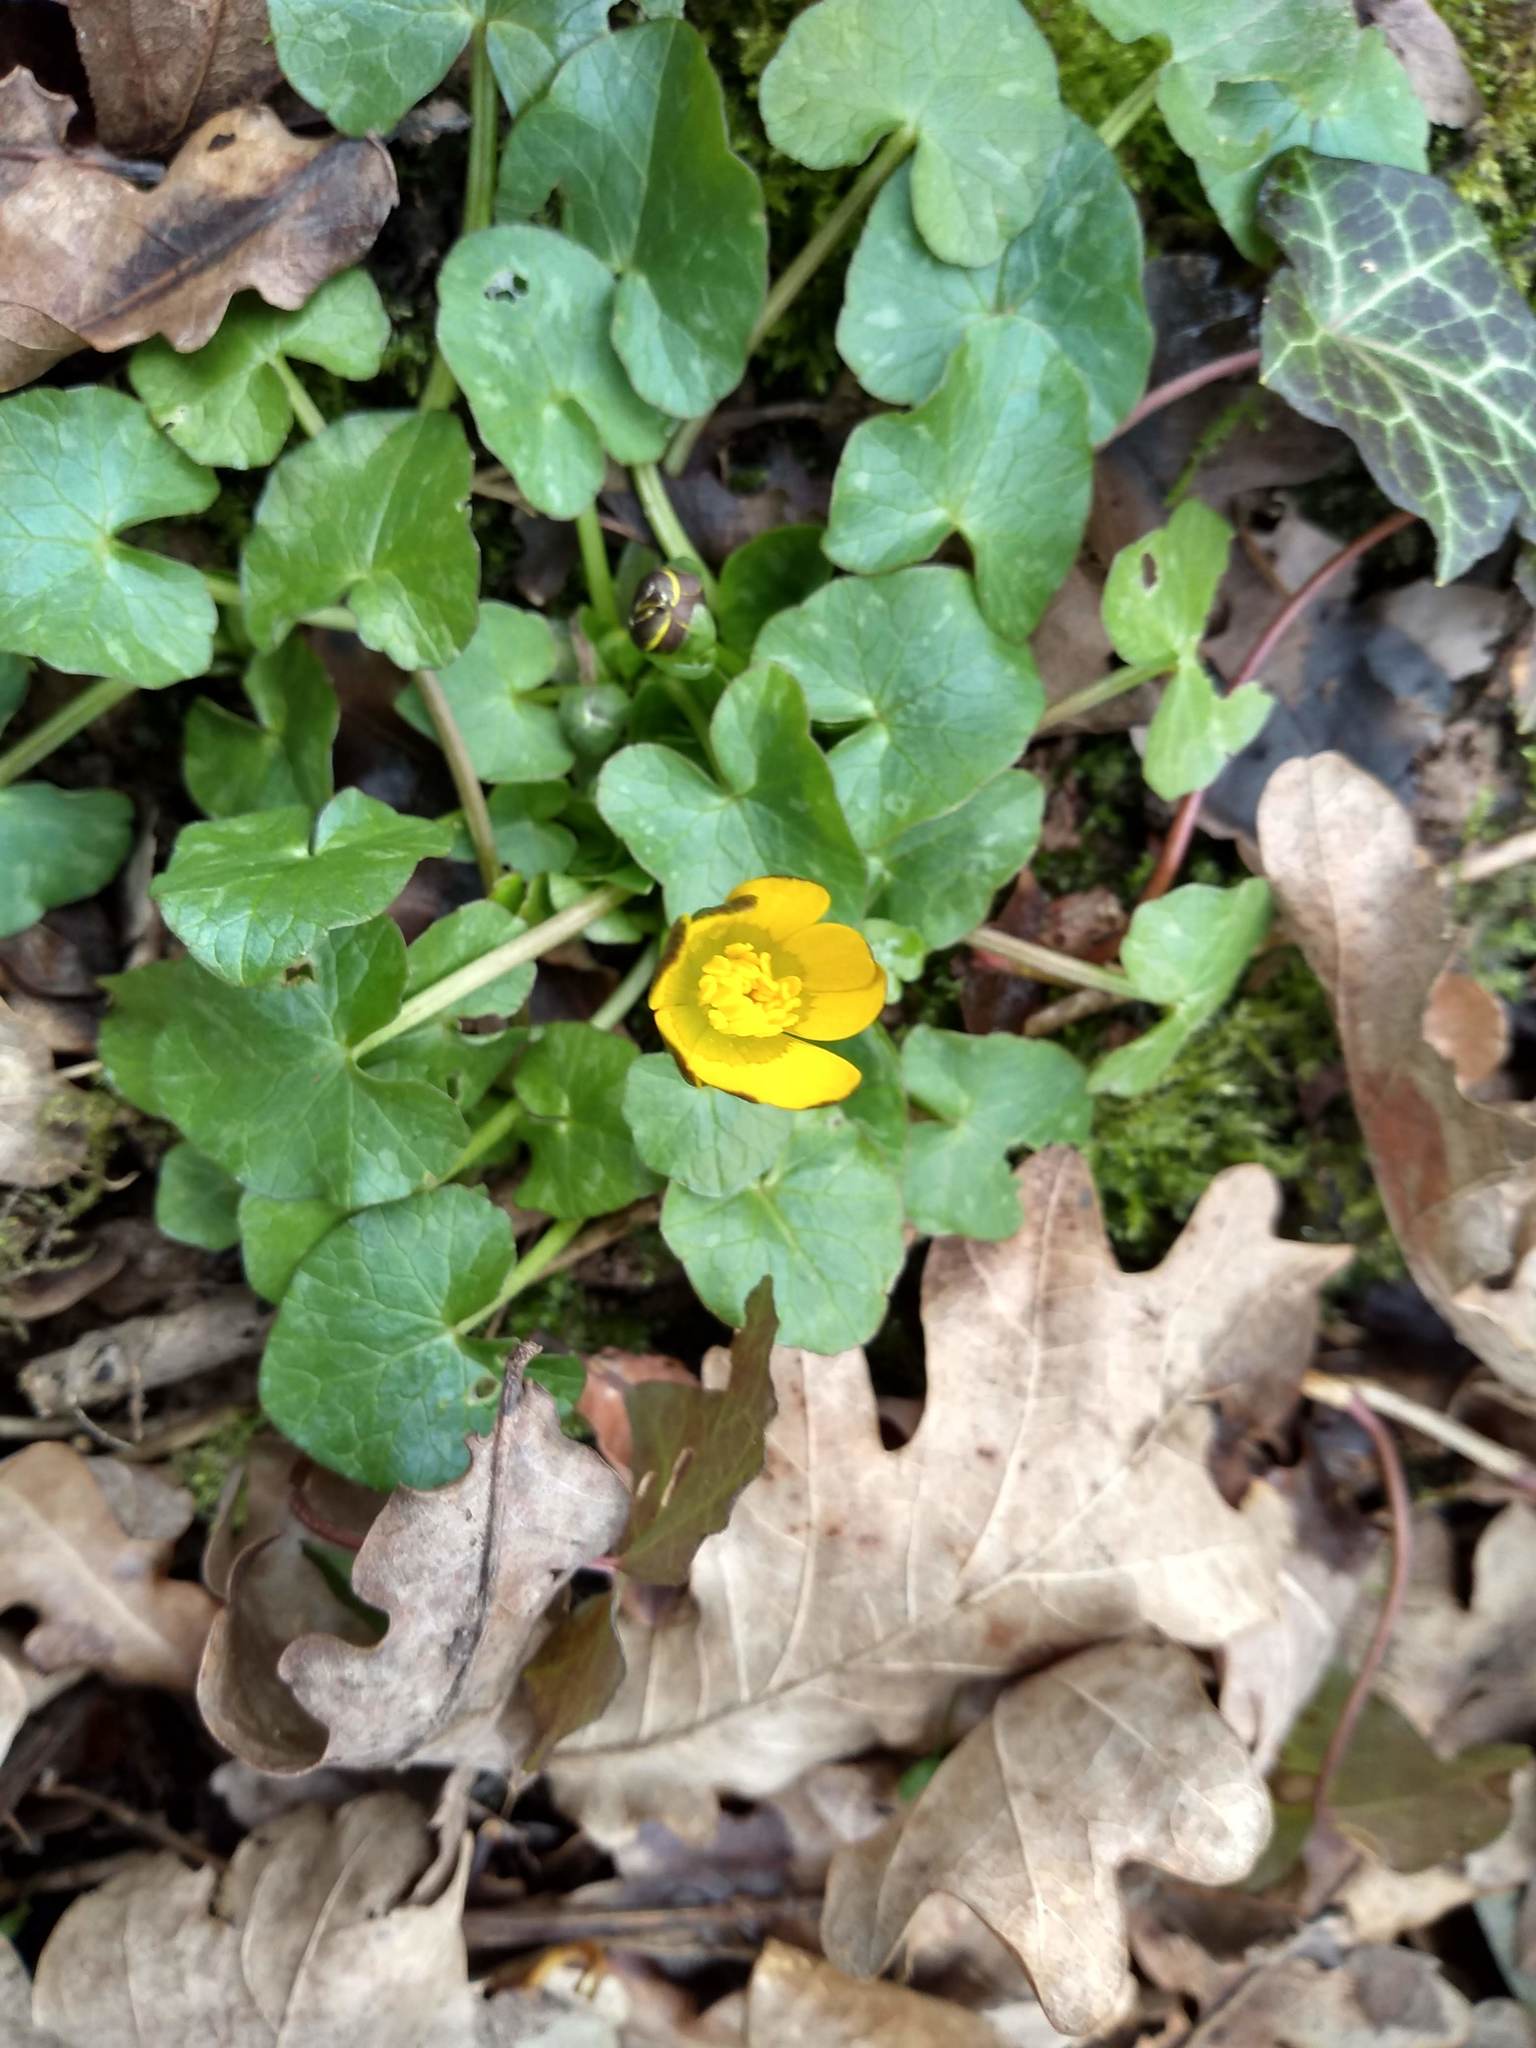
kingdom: Plantae
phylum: Tracheophyta
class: Magnoliopsida
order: Ranunculales
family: Ranunculaceae
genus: Ficaria
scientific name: Ficaria verna
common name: Lesser celandine
